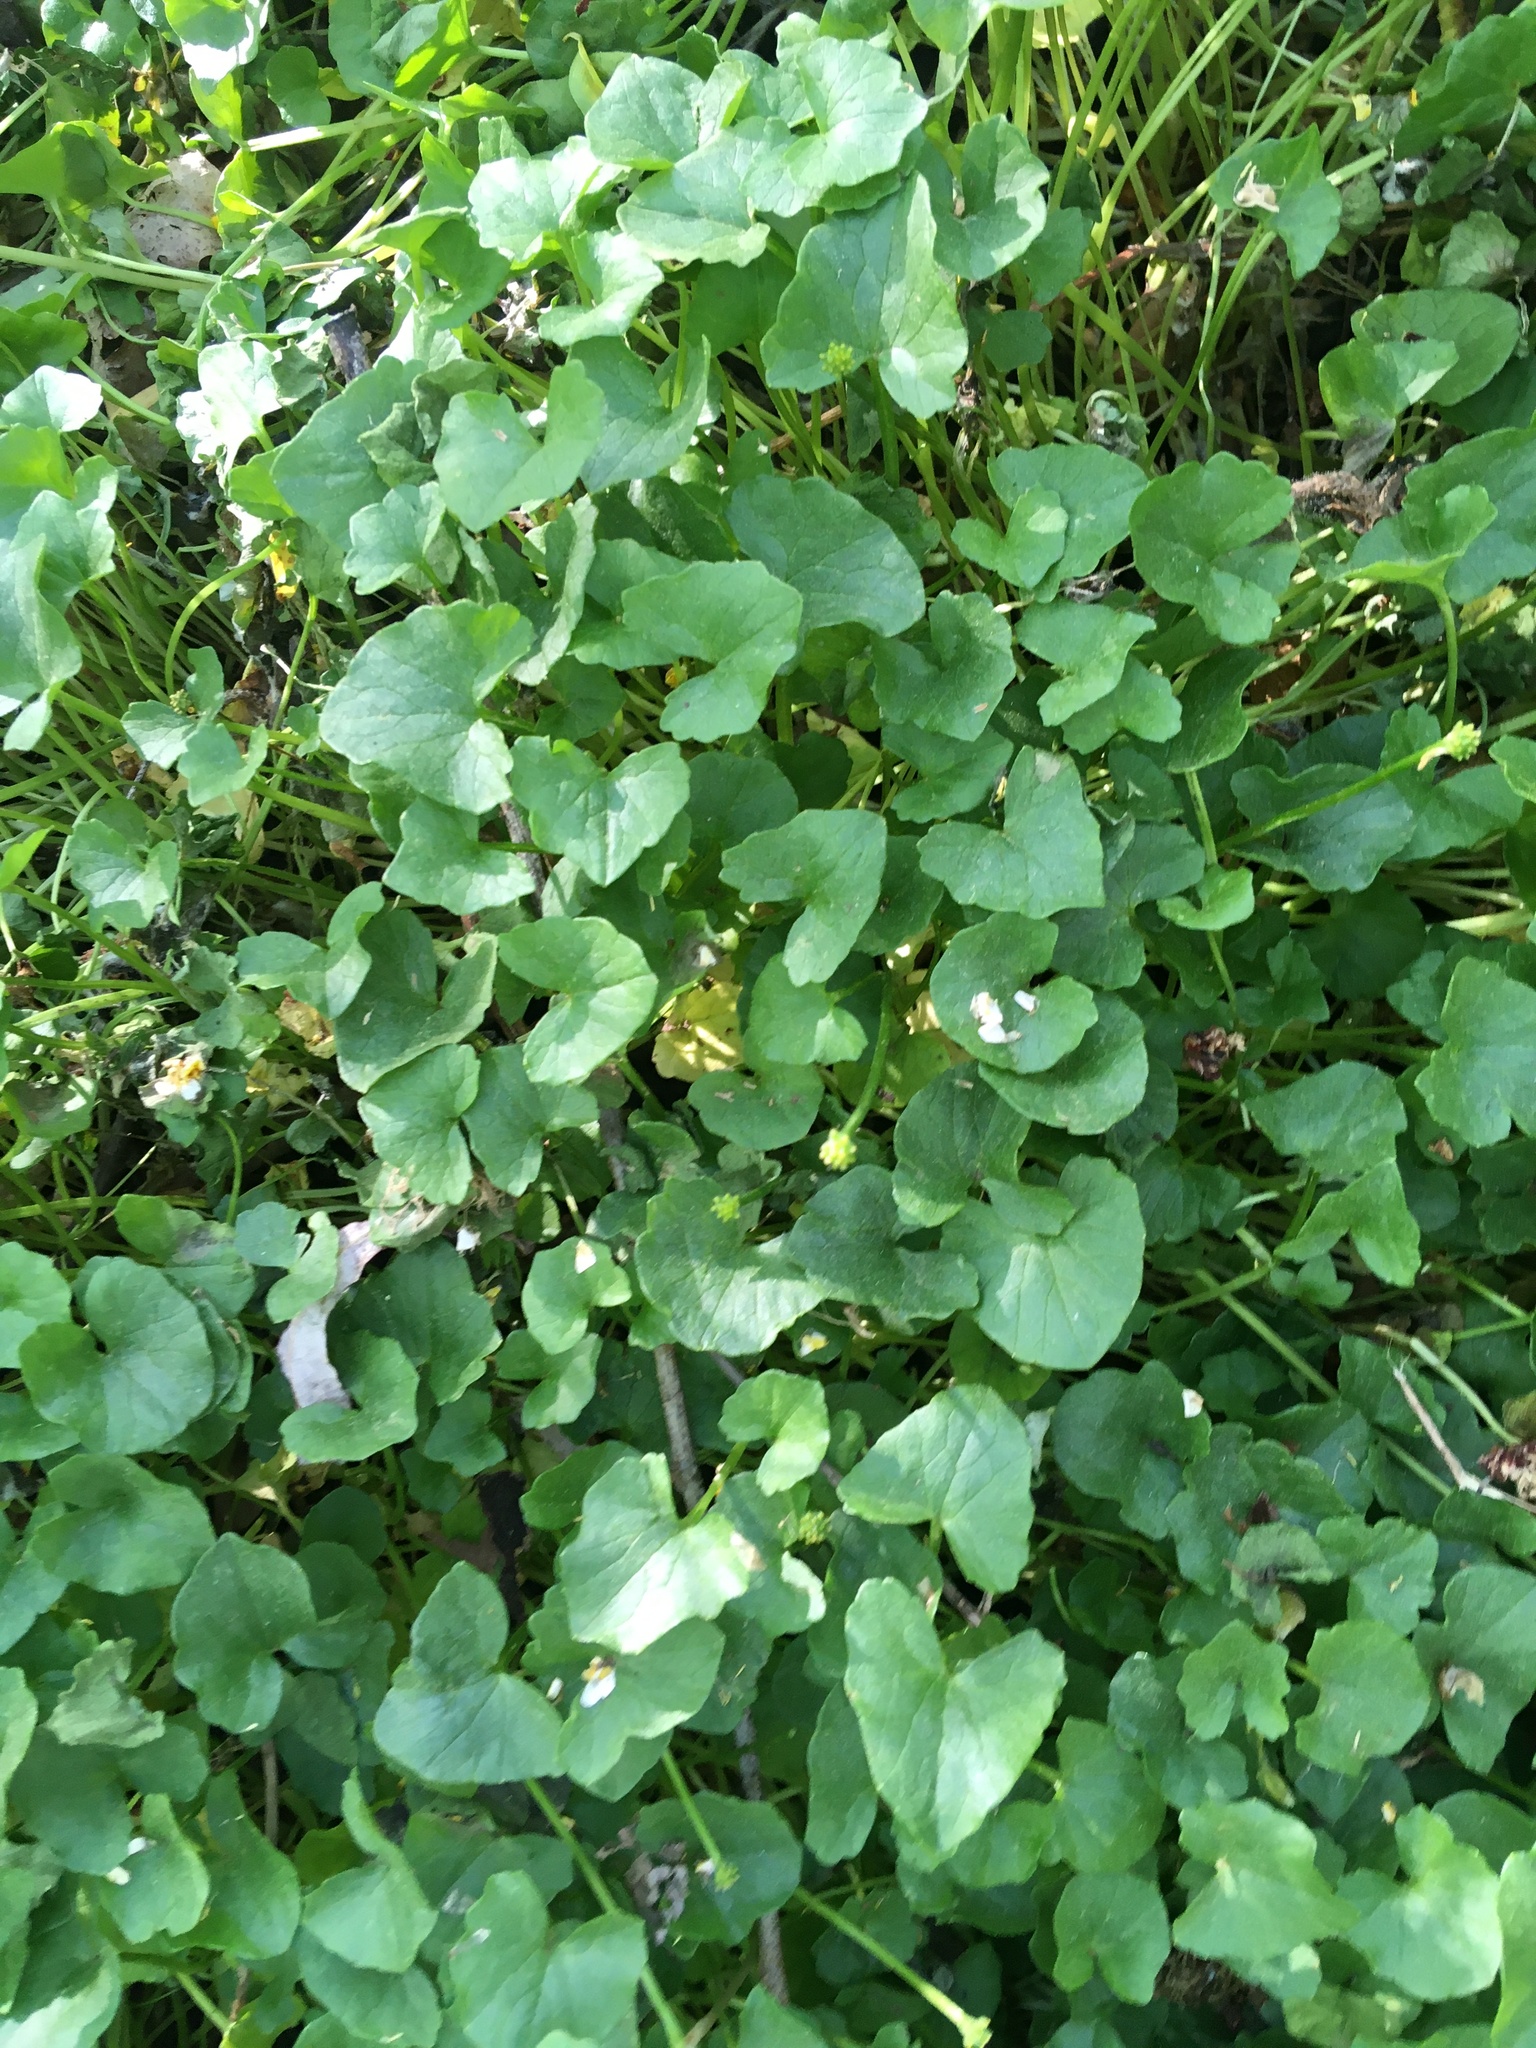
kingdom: Plantae
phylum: Tracheophyta
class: Magnoliopsida
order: Ranunculales
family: Ranunculaceae
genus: Ficaria
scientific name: Ficaria verna
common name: Lesser celandine
